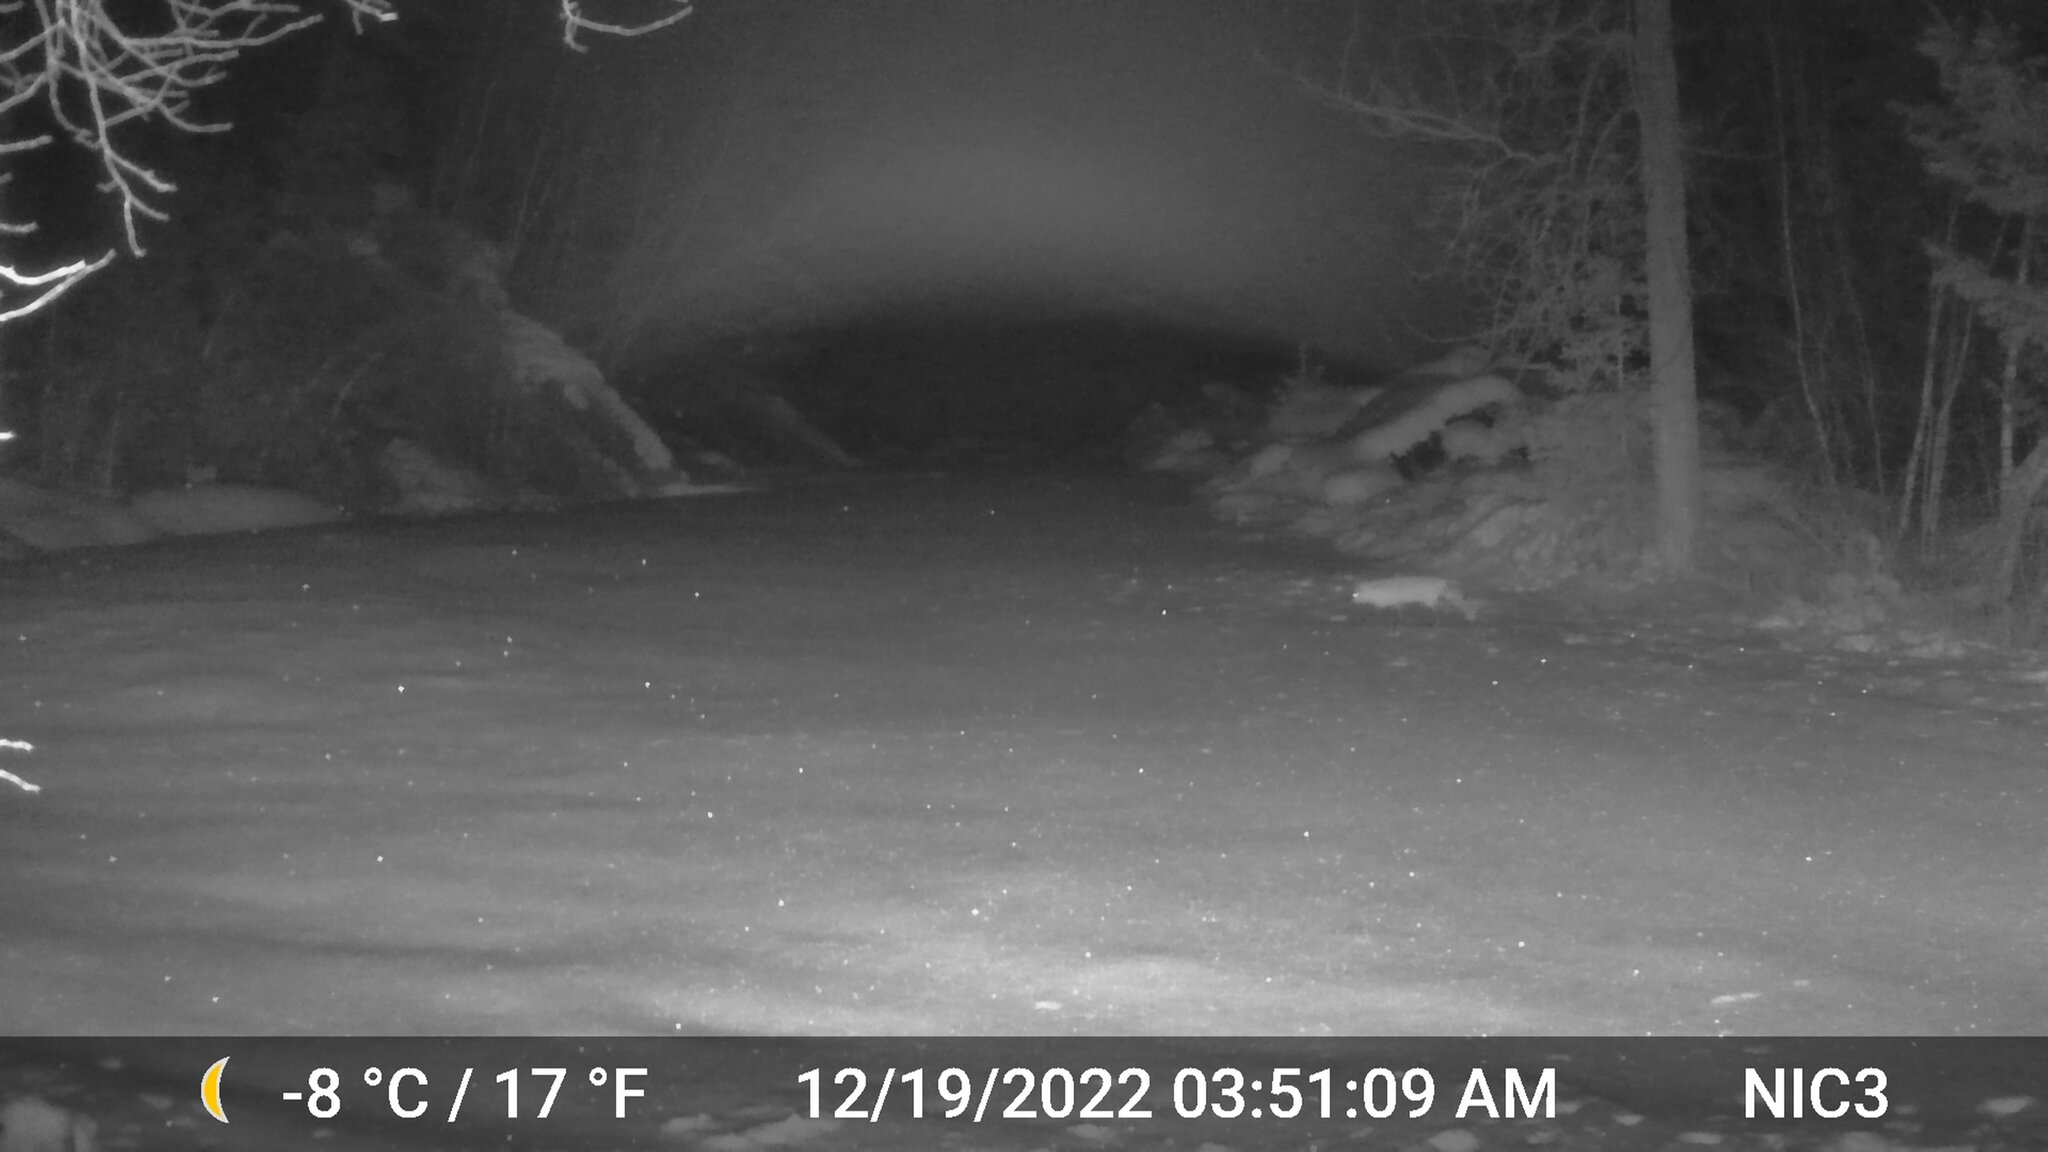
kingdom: Animalia
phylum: Chordata
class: Mammalia
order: Carnivora
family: Canidae
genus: Vulpes
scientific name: Vulpes vulpes
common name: Red fox
